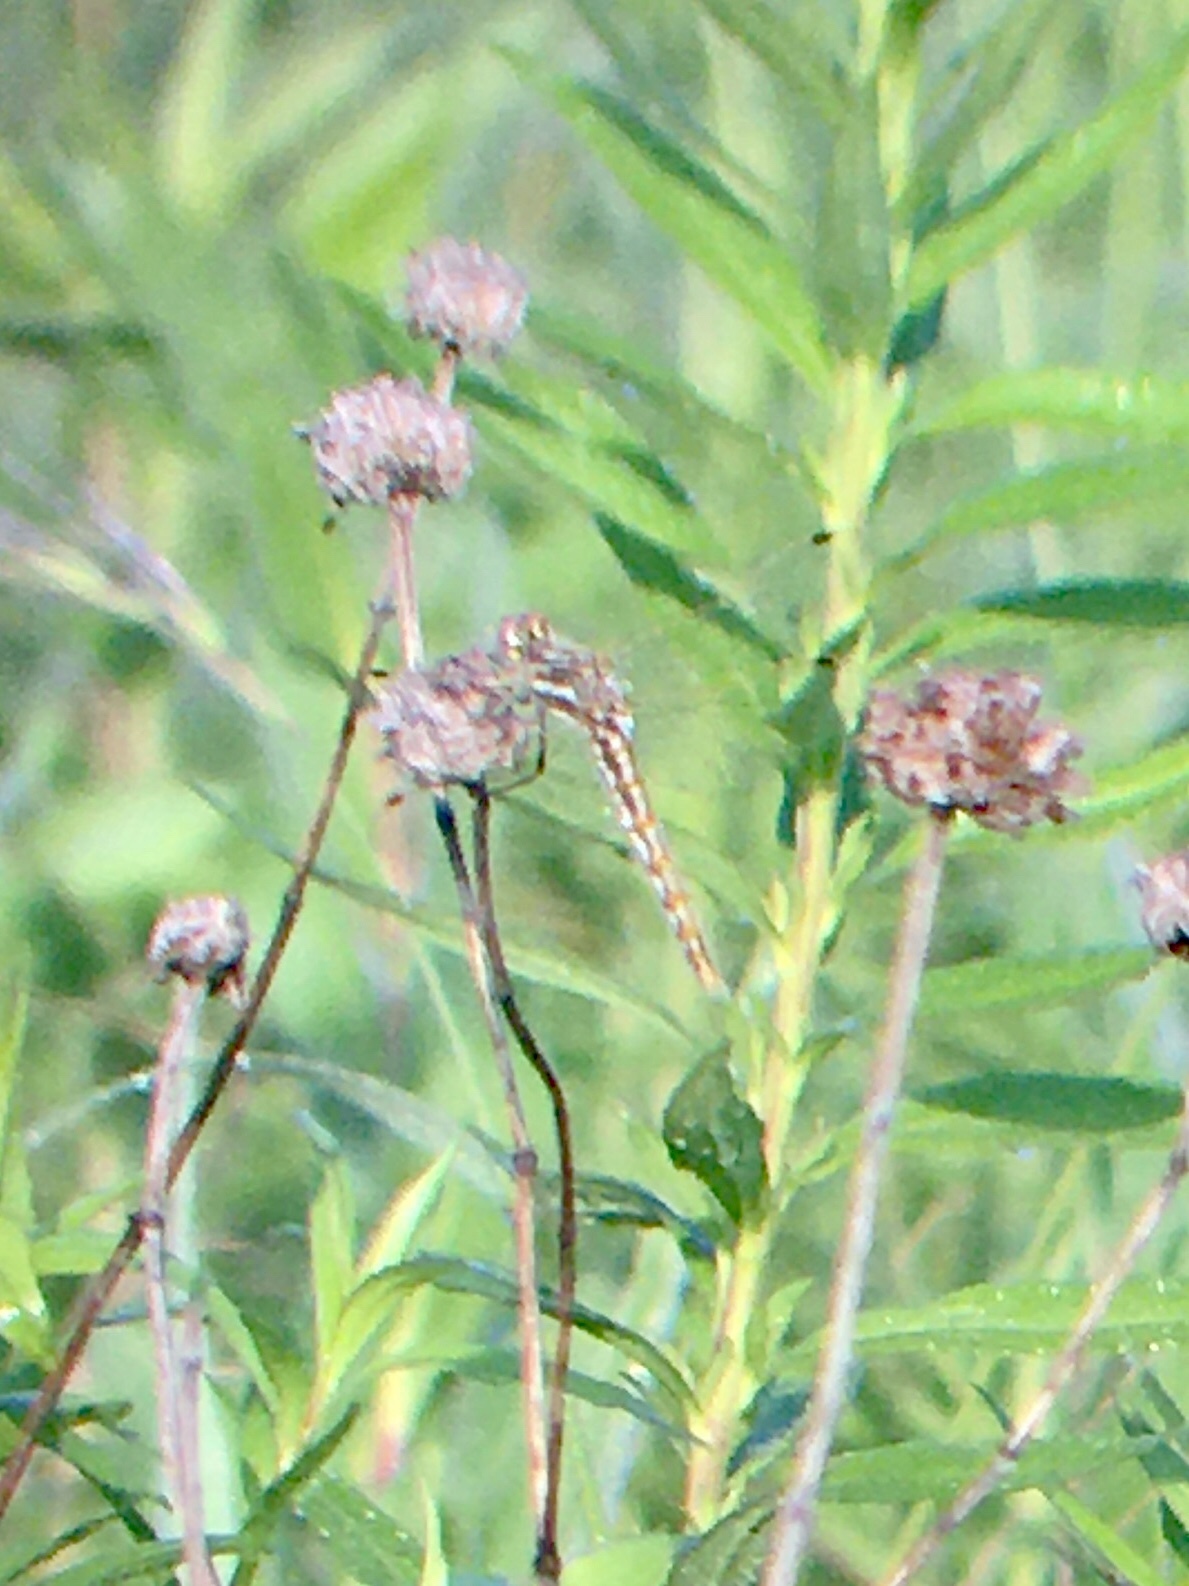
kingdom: Animalia
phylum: Arthropoda
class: Insecta
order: Odonata
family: Libellulidae
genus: Sympetrum
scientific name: Sympetrum corruptum
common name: Variegated meadowhawk
